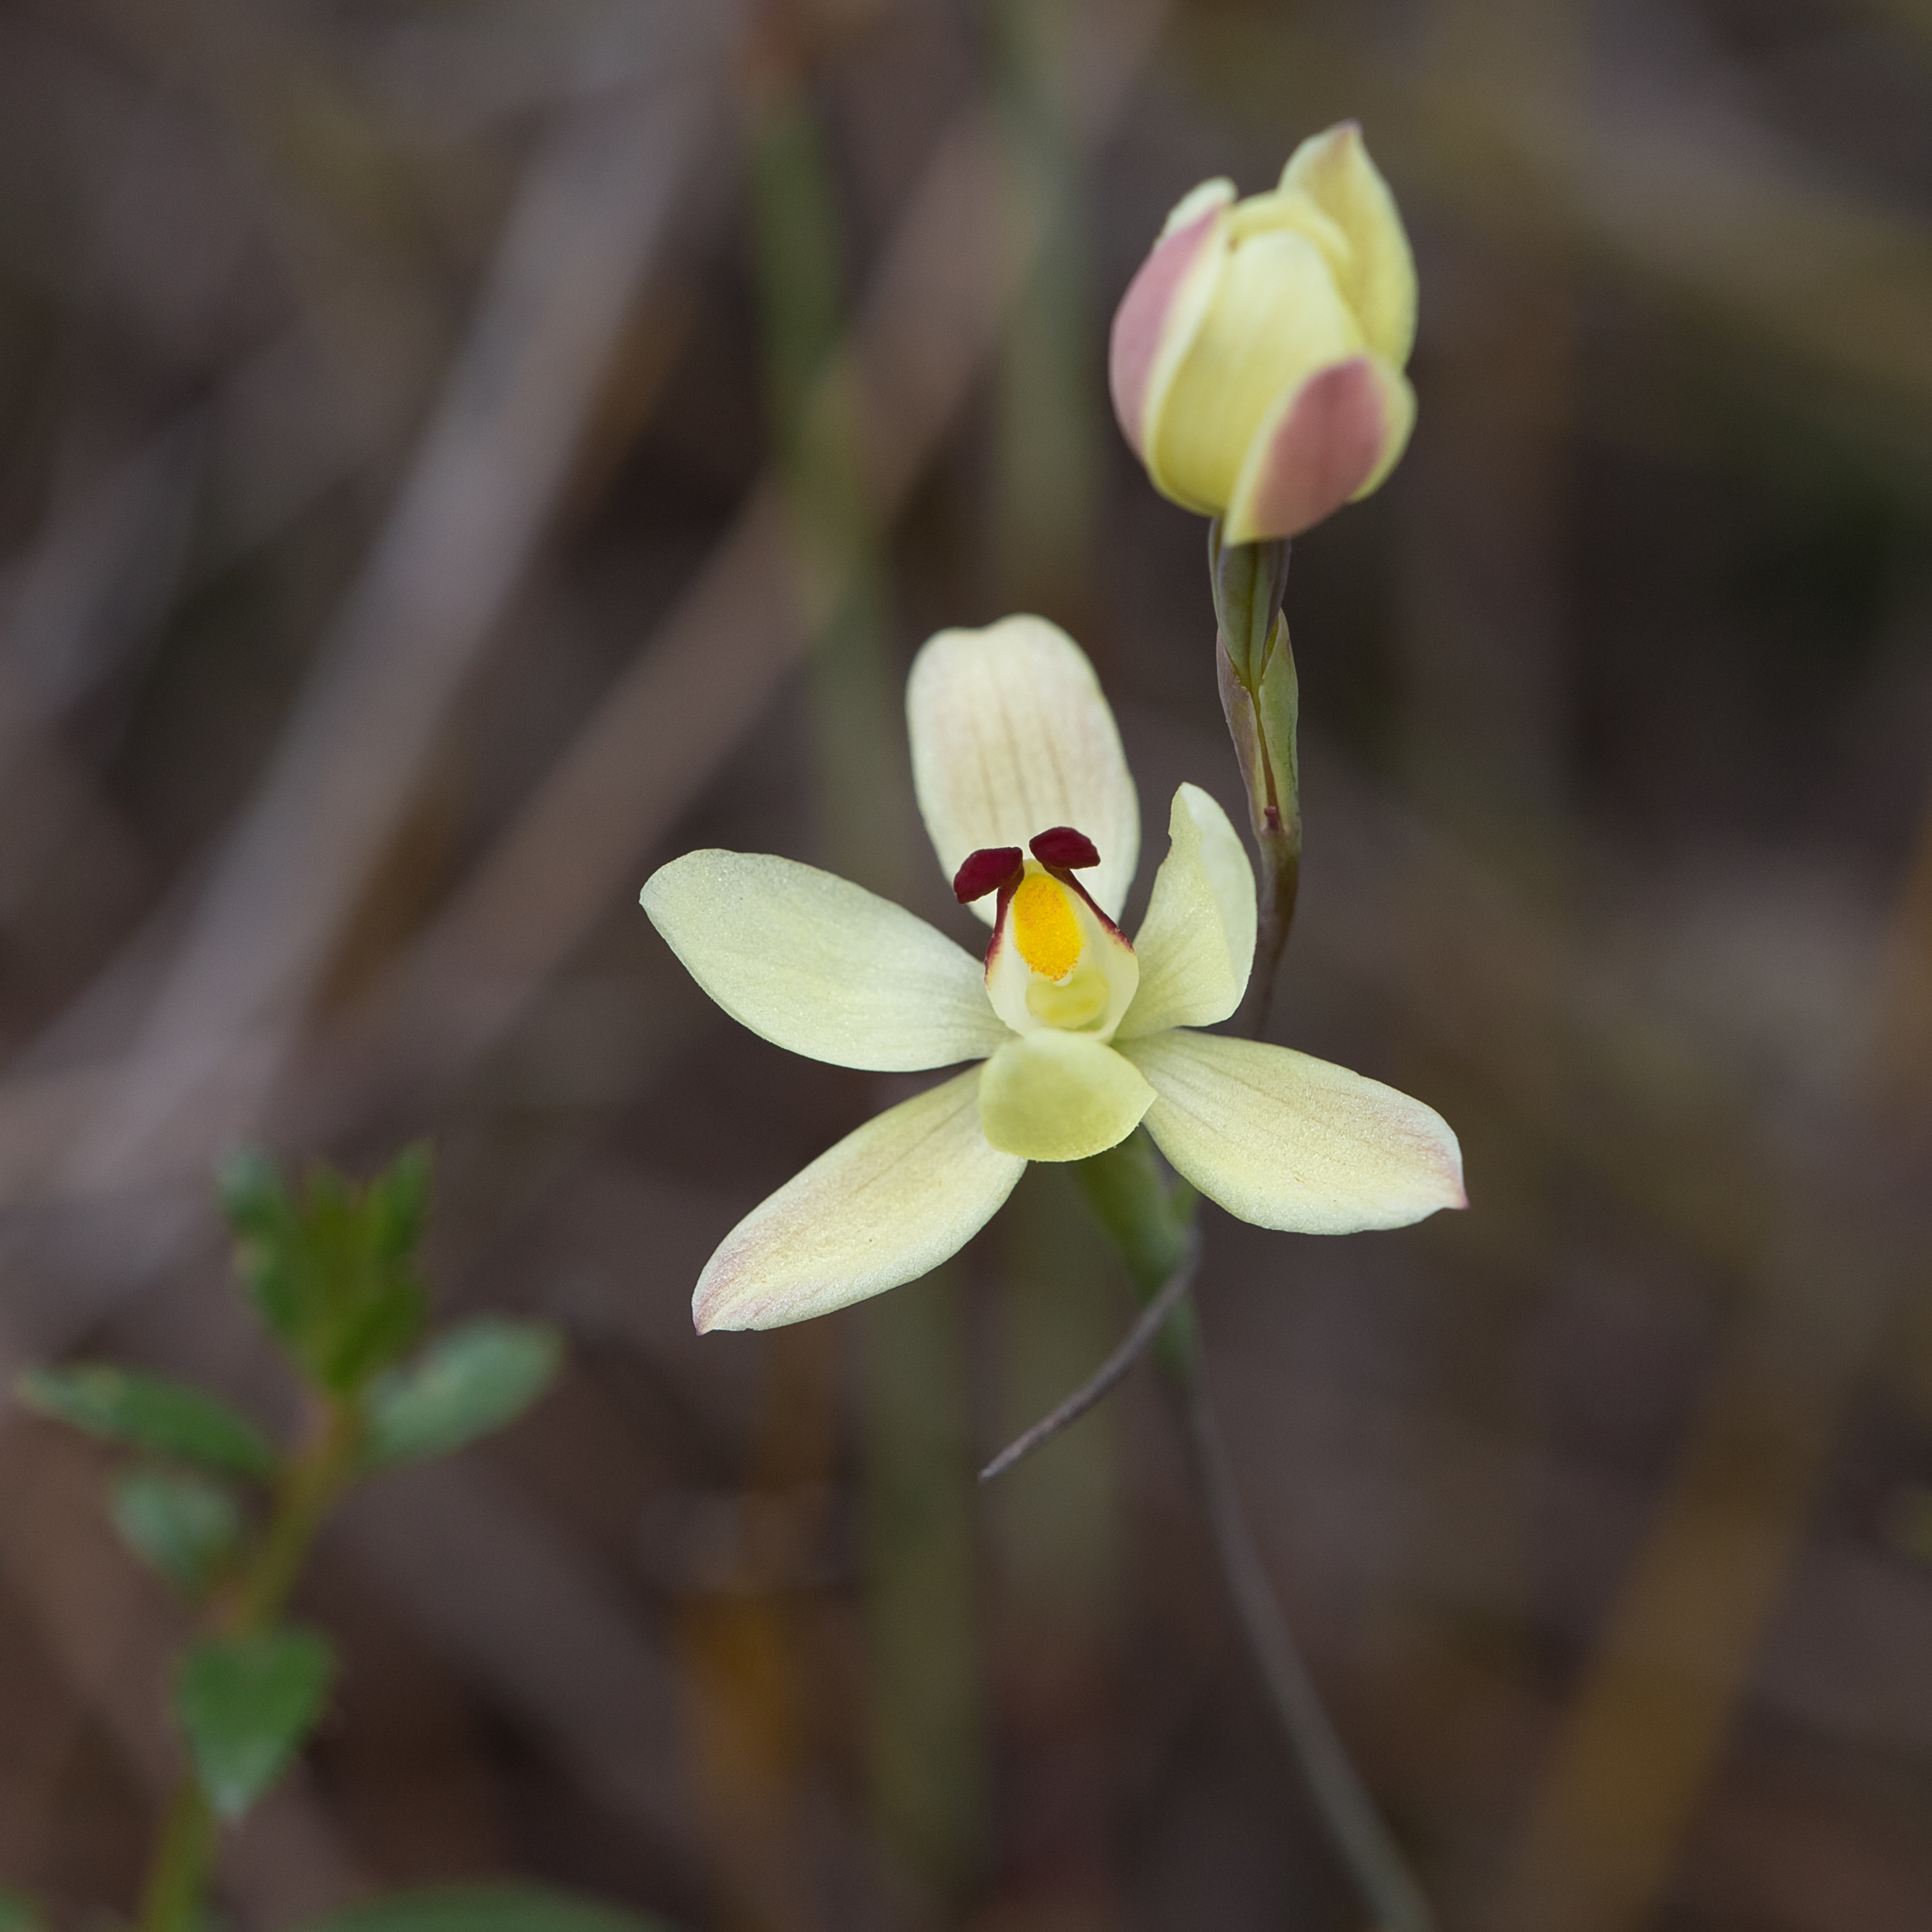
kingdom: Plantae
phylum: Tracheophyta
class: Liliopsida
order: Asparagales
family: Orchidaceae
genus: Thelymitra
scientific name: Thelymitra antennifera
